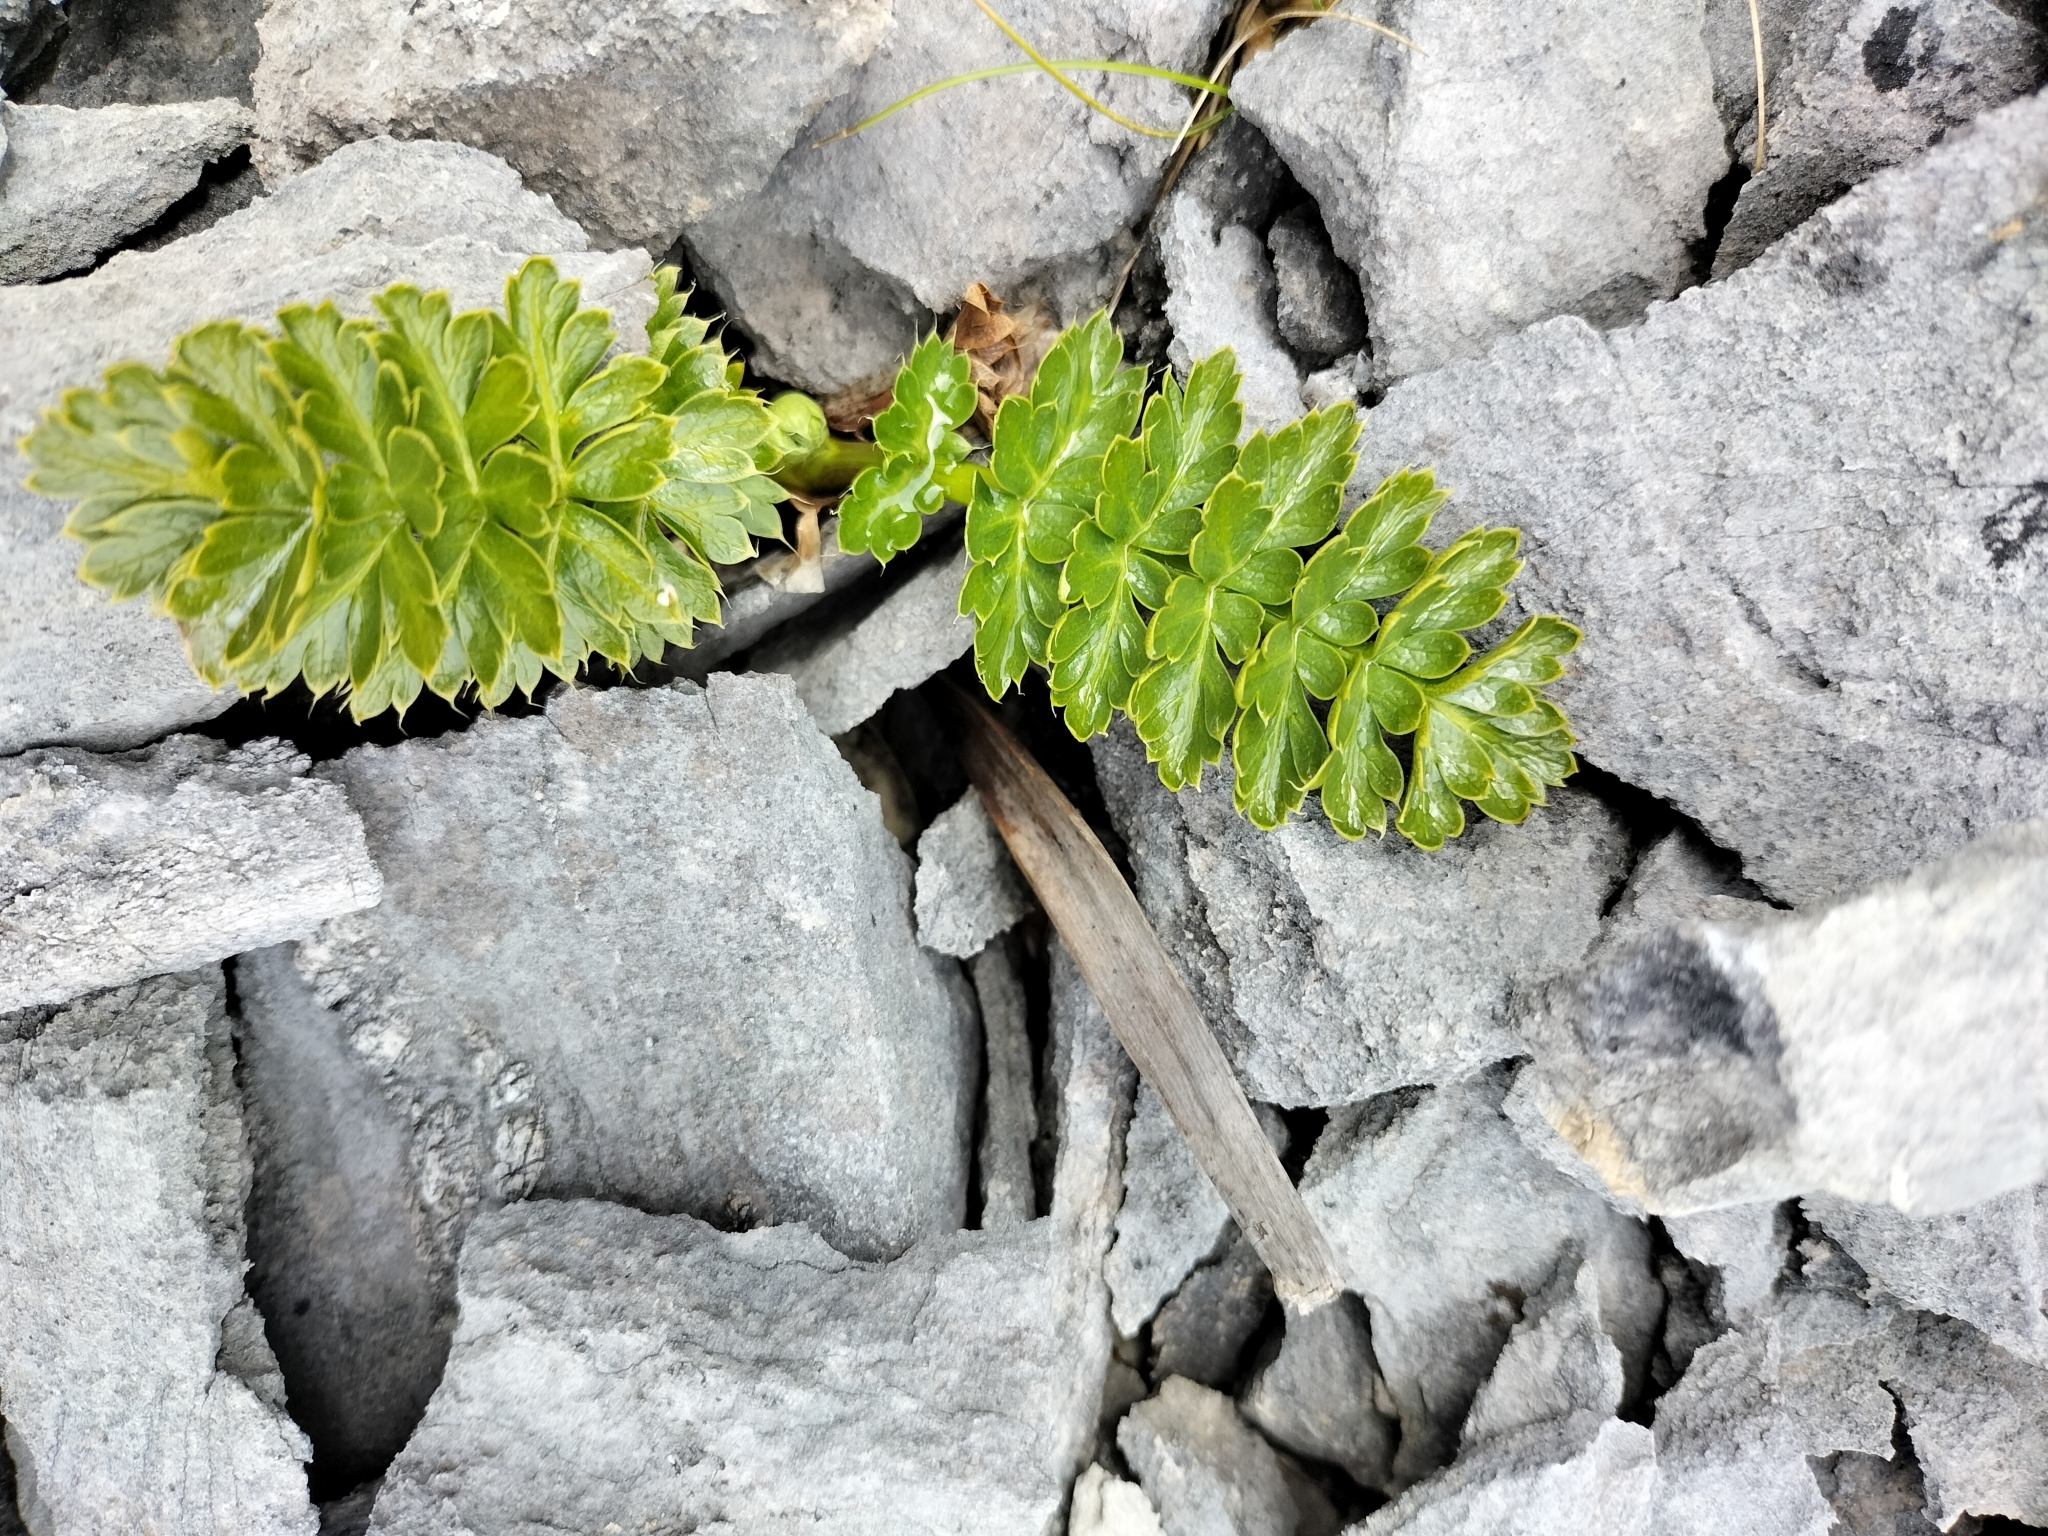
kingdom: Plantae
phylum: Tracheophyta
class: Magnoliopsida
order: Apiales
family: Apiaceae
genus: Anisotome
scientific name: Anisotome pilifera
